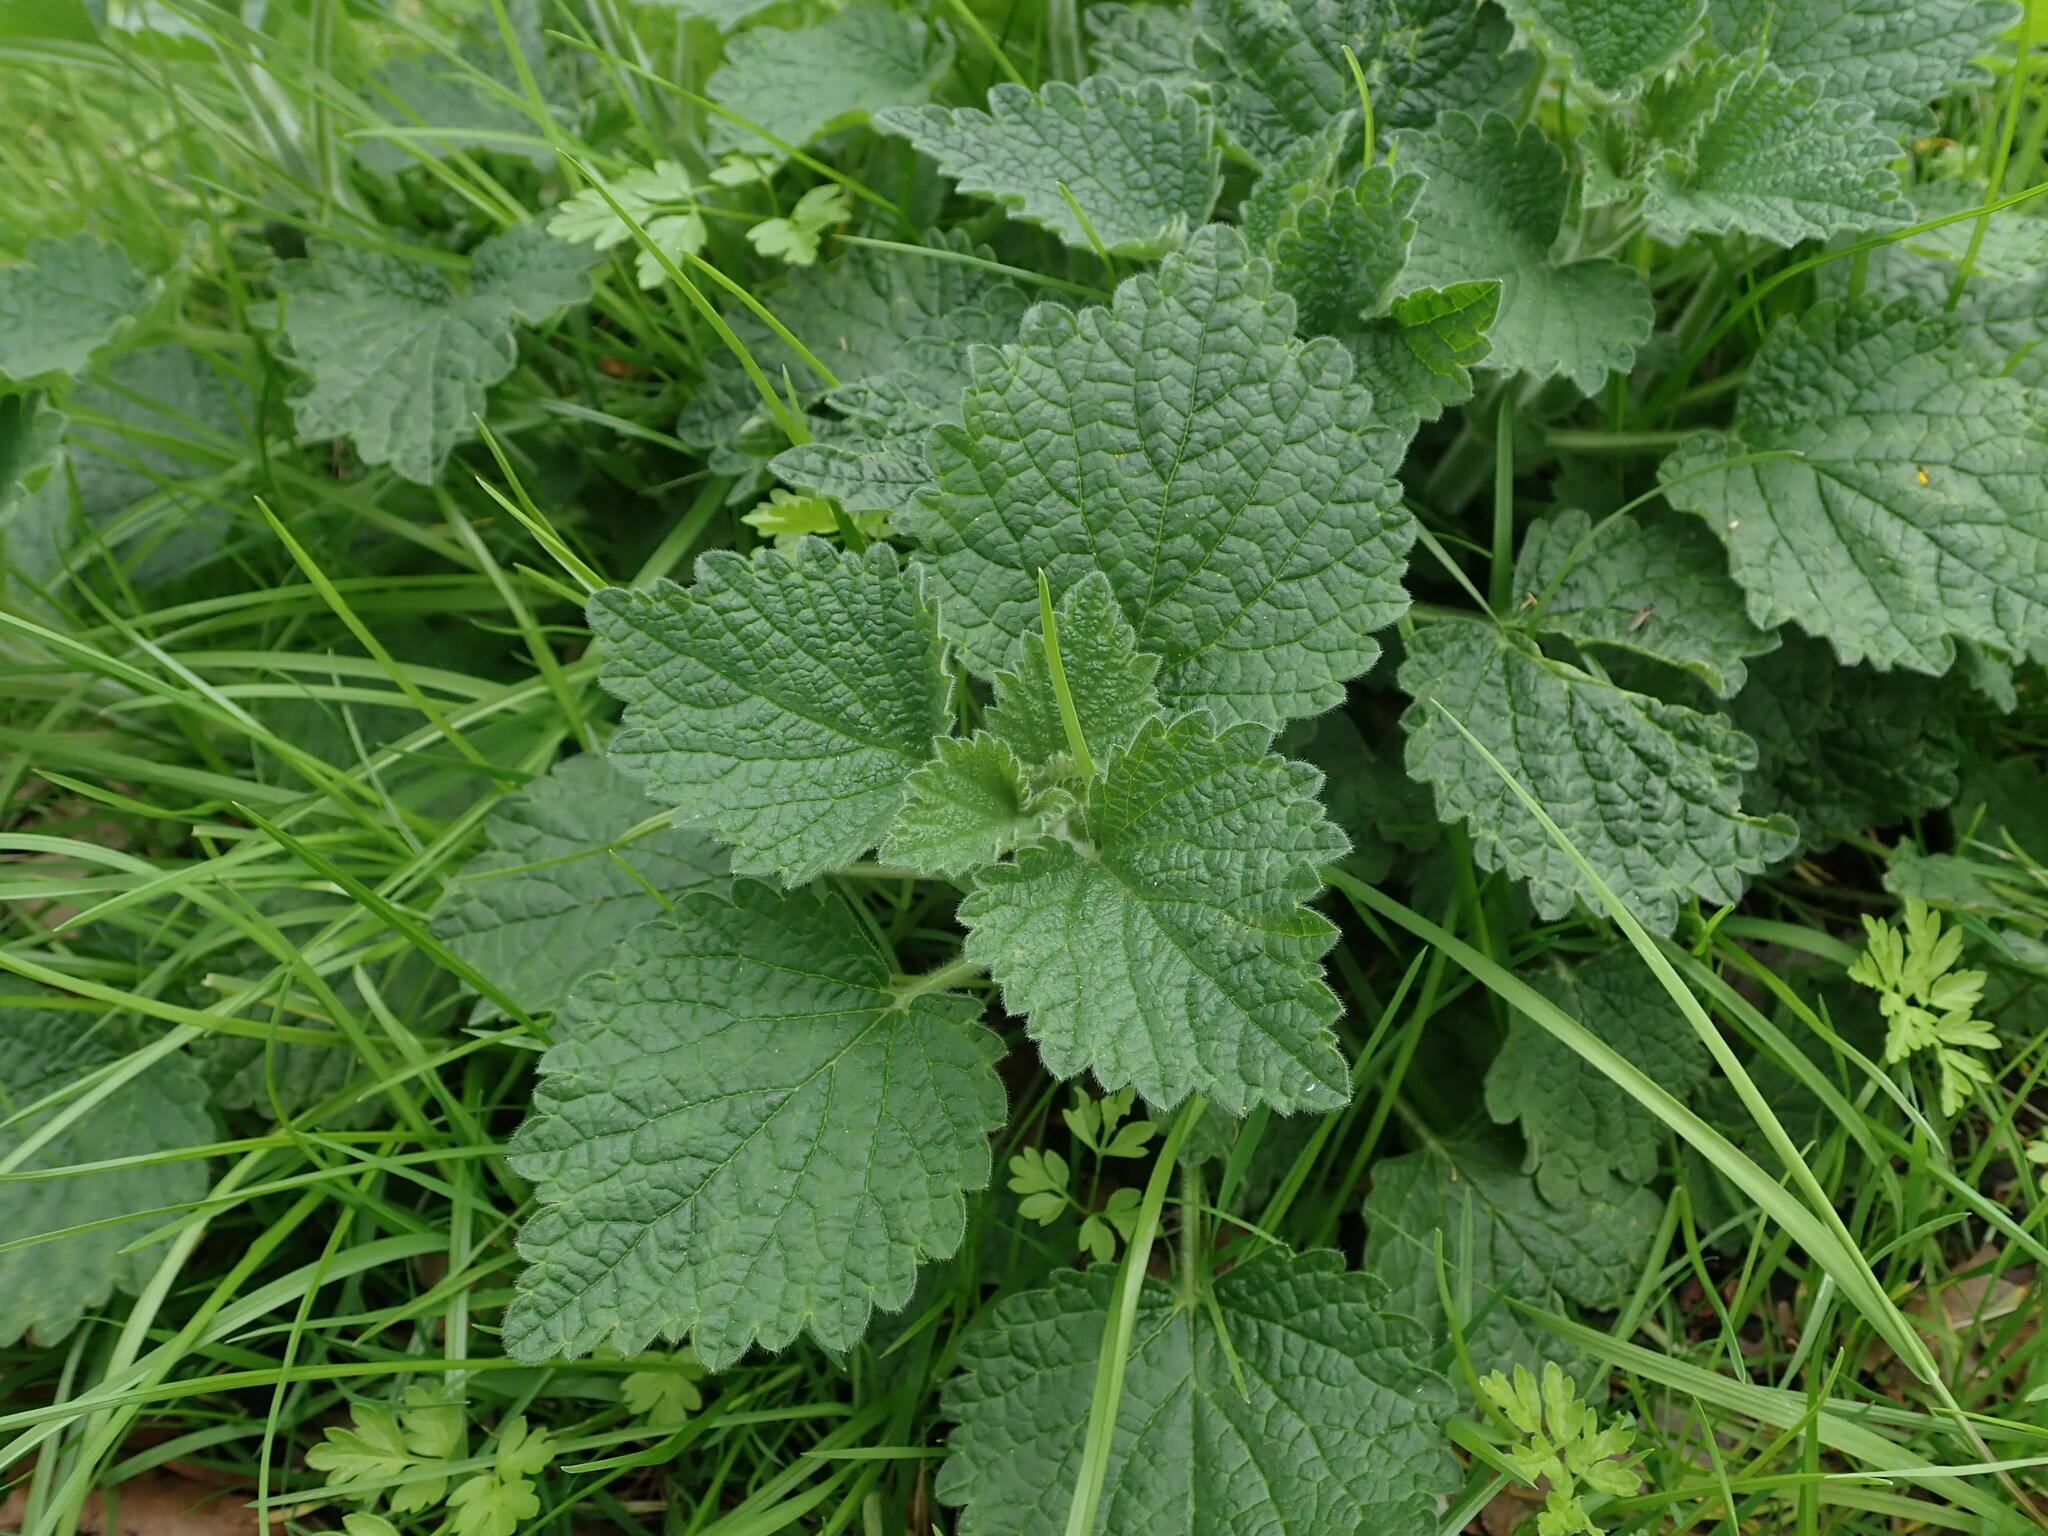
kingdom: Plantae
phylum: Tracheophyta
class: Magnoliopsida
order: Lamiales
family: Lamiaceae
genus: Ballota
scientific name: Ballota nigra
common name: Black horehound
